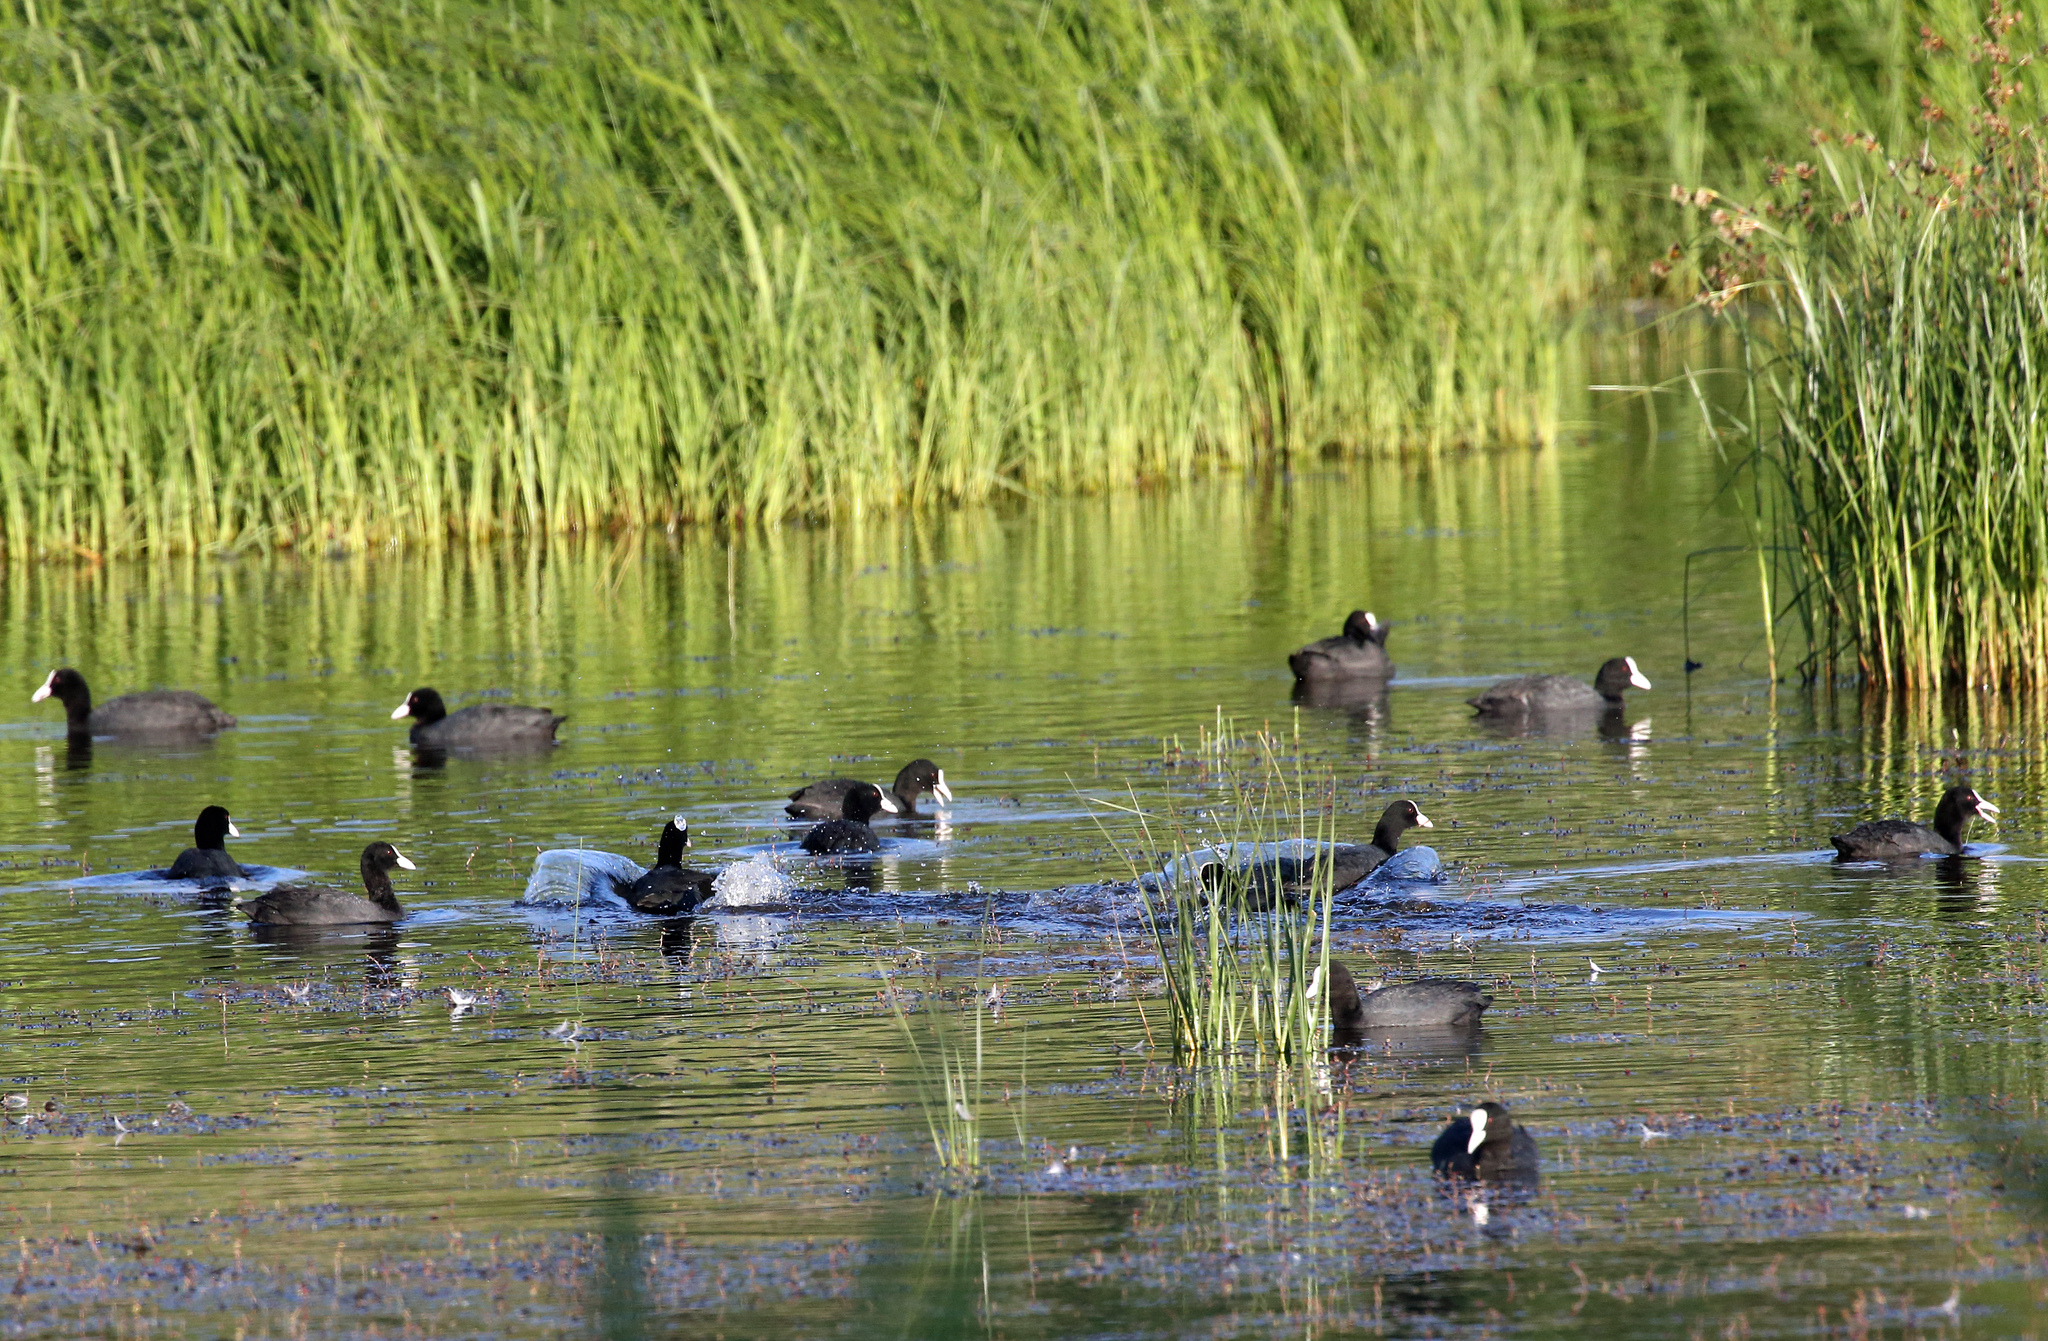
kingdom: Animalia
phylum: Chordata
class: Aves
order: Gruiformes
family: Rallidae
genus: Fulica
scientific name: Fulica atra
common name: Eurasian coot
